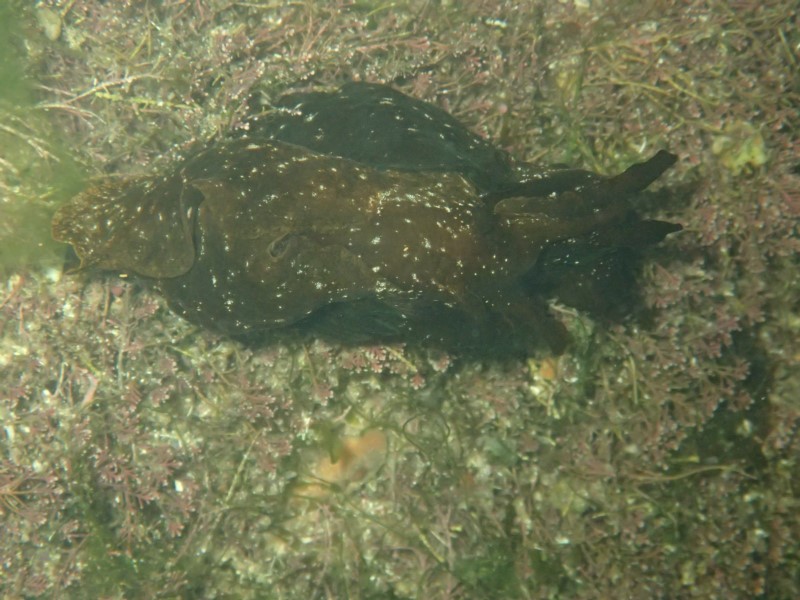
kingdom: Animalia
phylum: Mollusca
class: Gastropoda
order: Aplysiida
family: Aplysiidae
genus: Aplysia
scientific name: Aplysia juliana
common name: Walking sea hare
